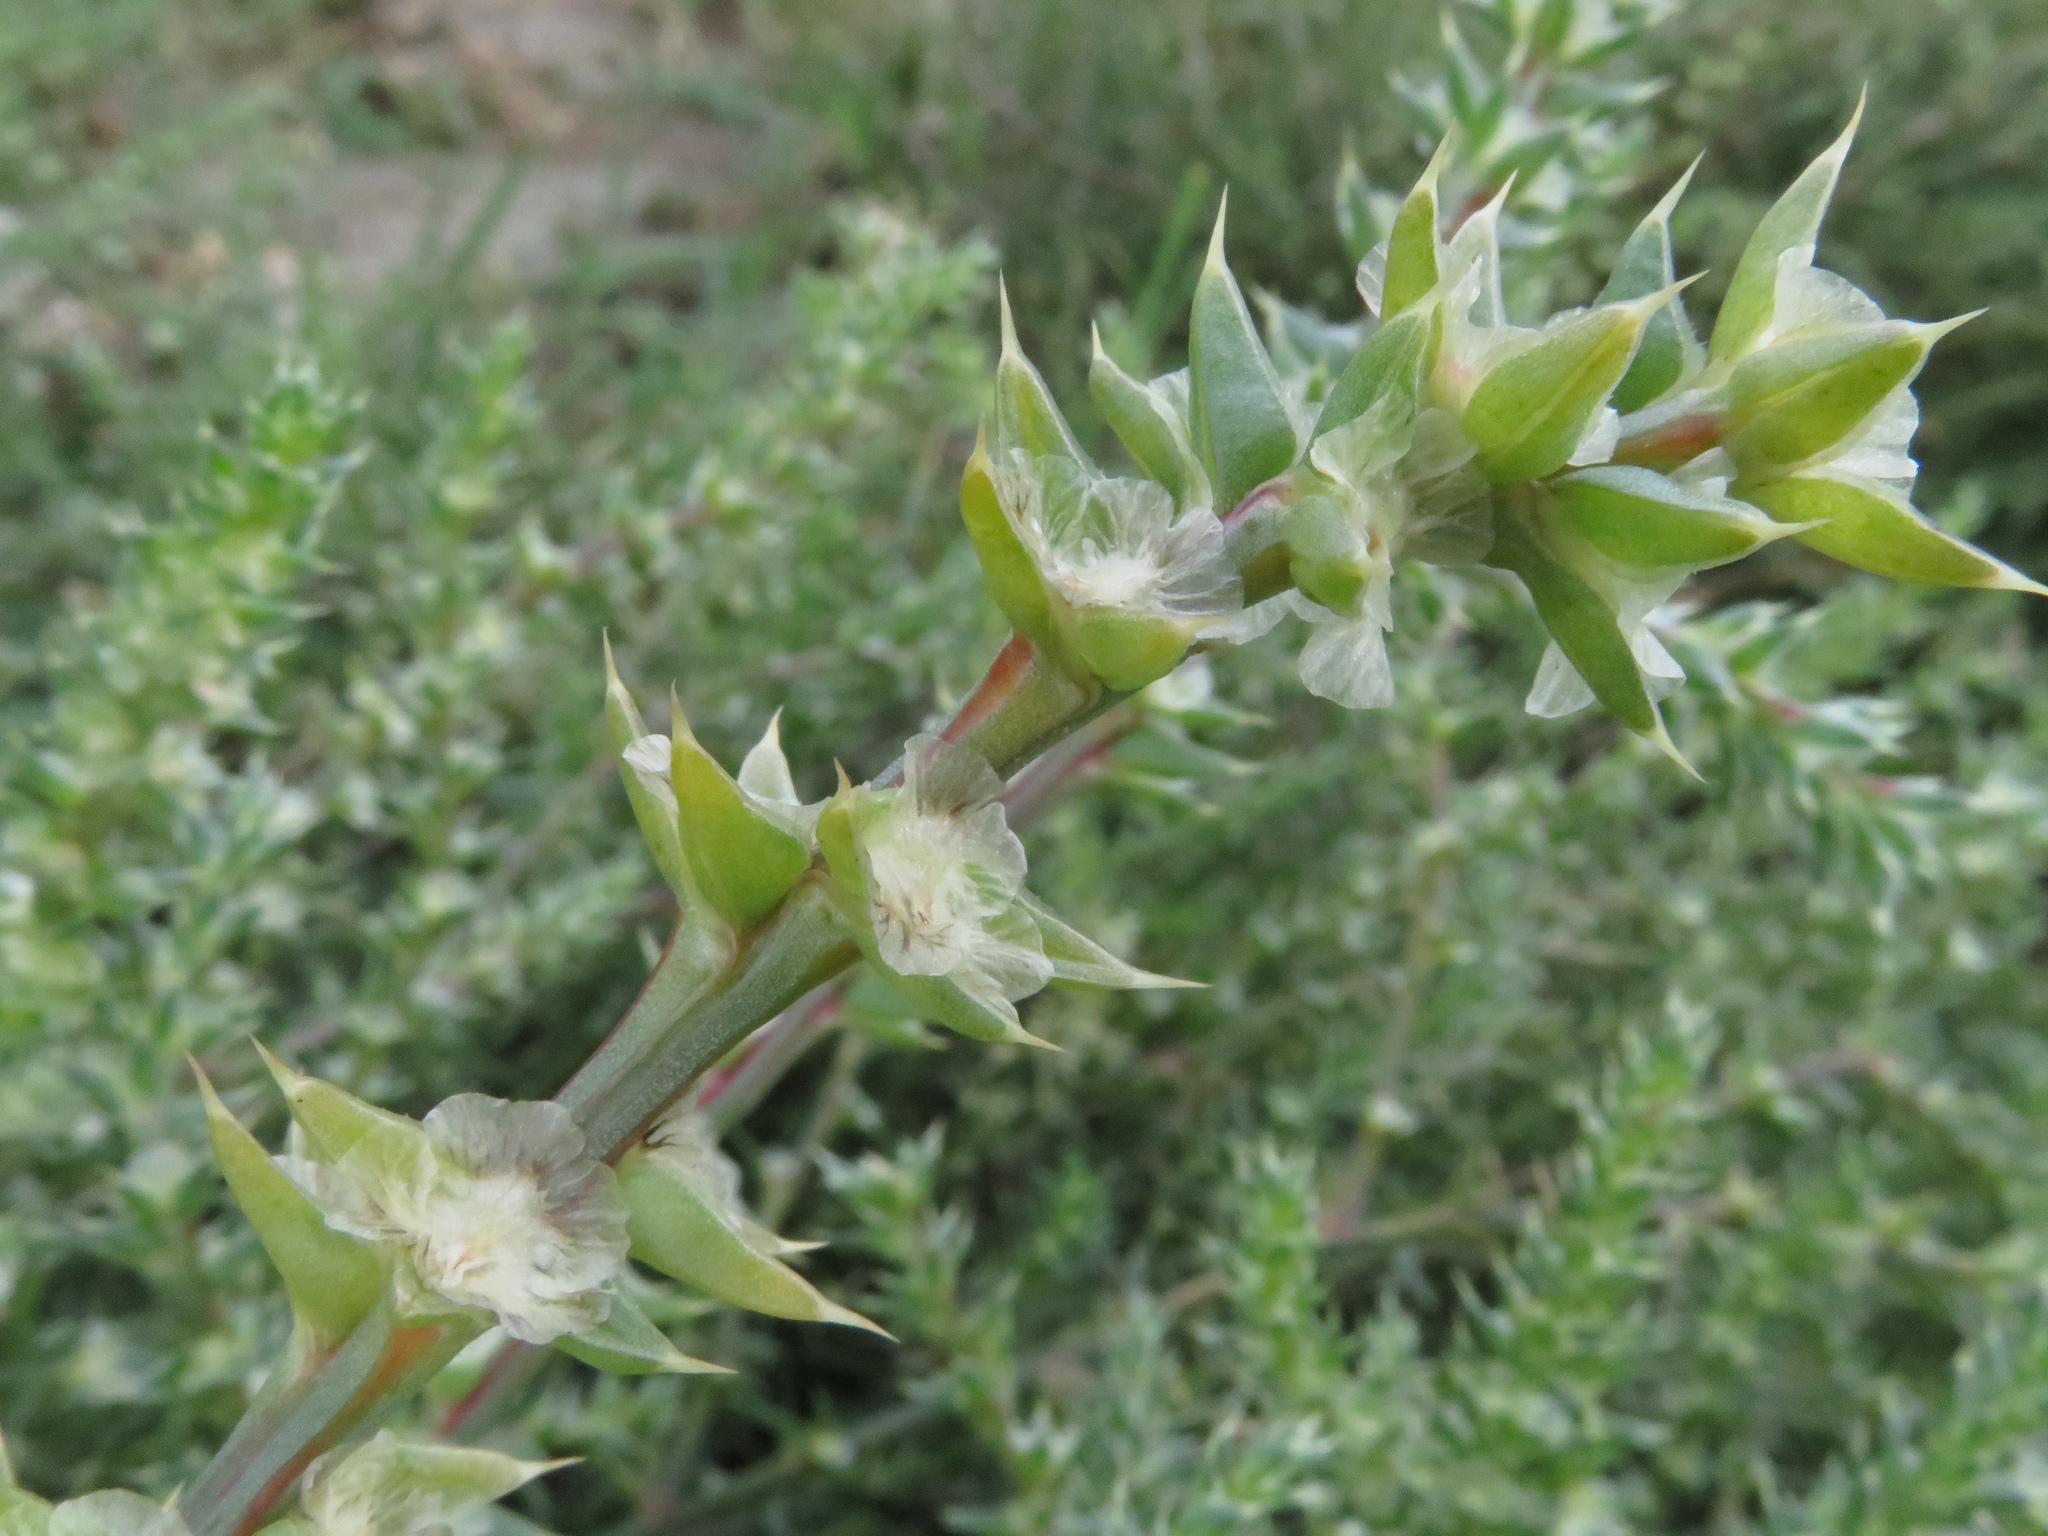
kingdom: Plantae
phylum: Tracheophyta
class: Magnoliopsida
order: Caryophyllales
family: Amaranthaceae
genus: Salsola
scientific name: Salsola tragus
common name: Prickly russian thistle
